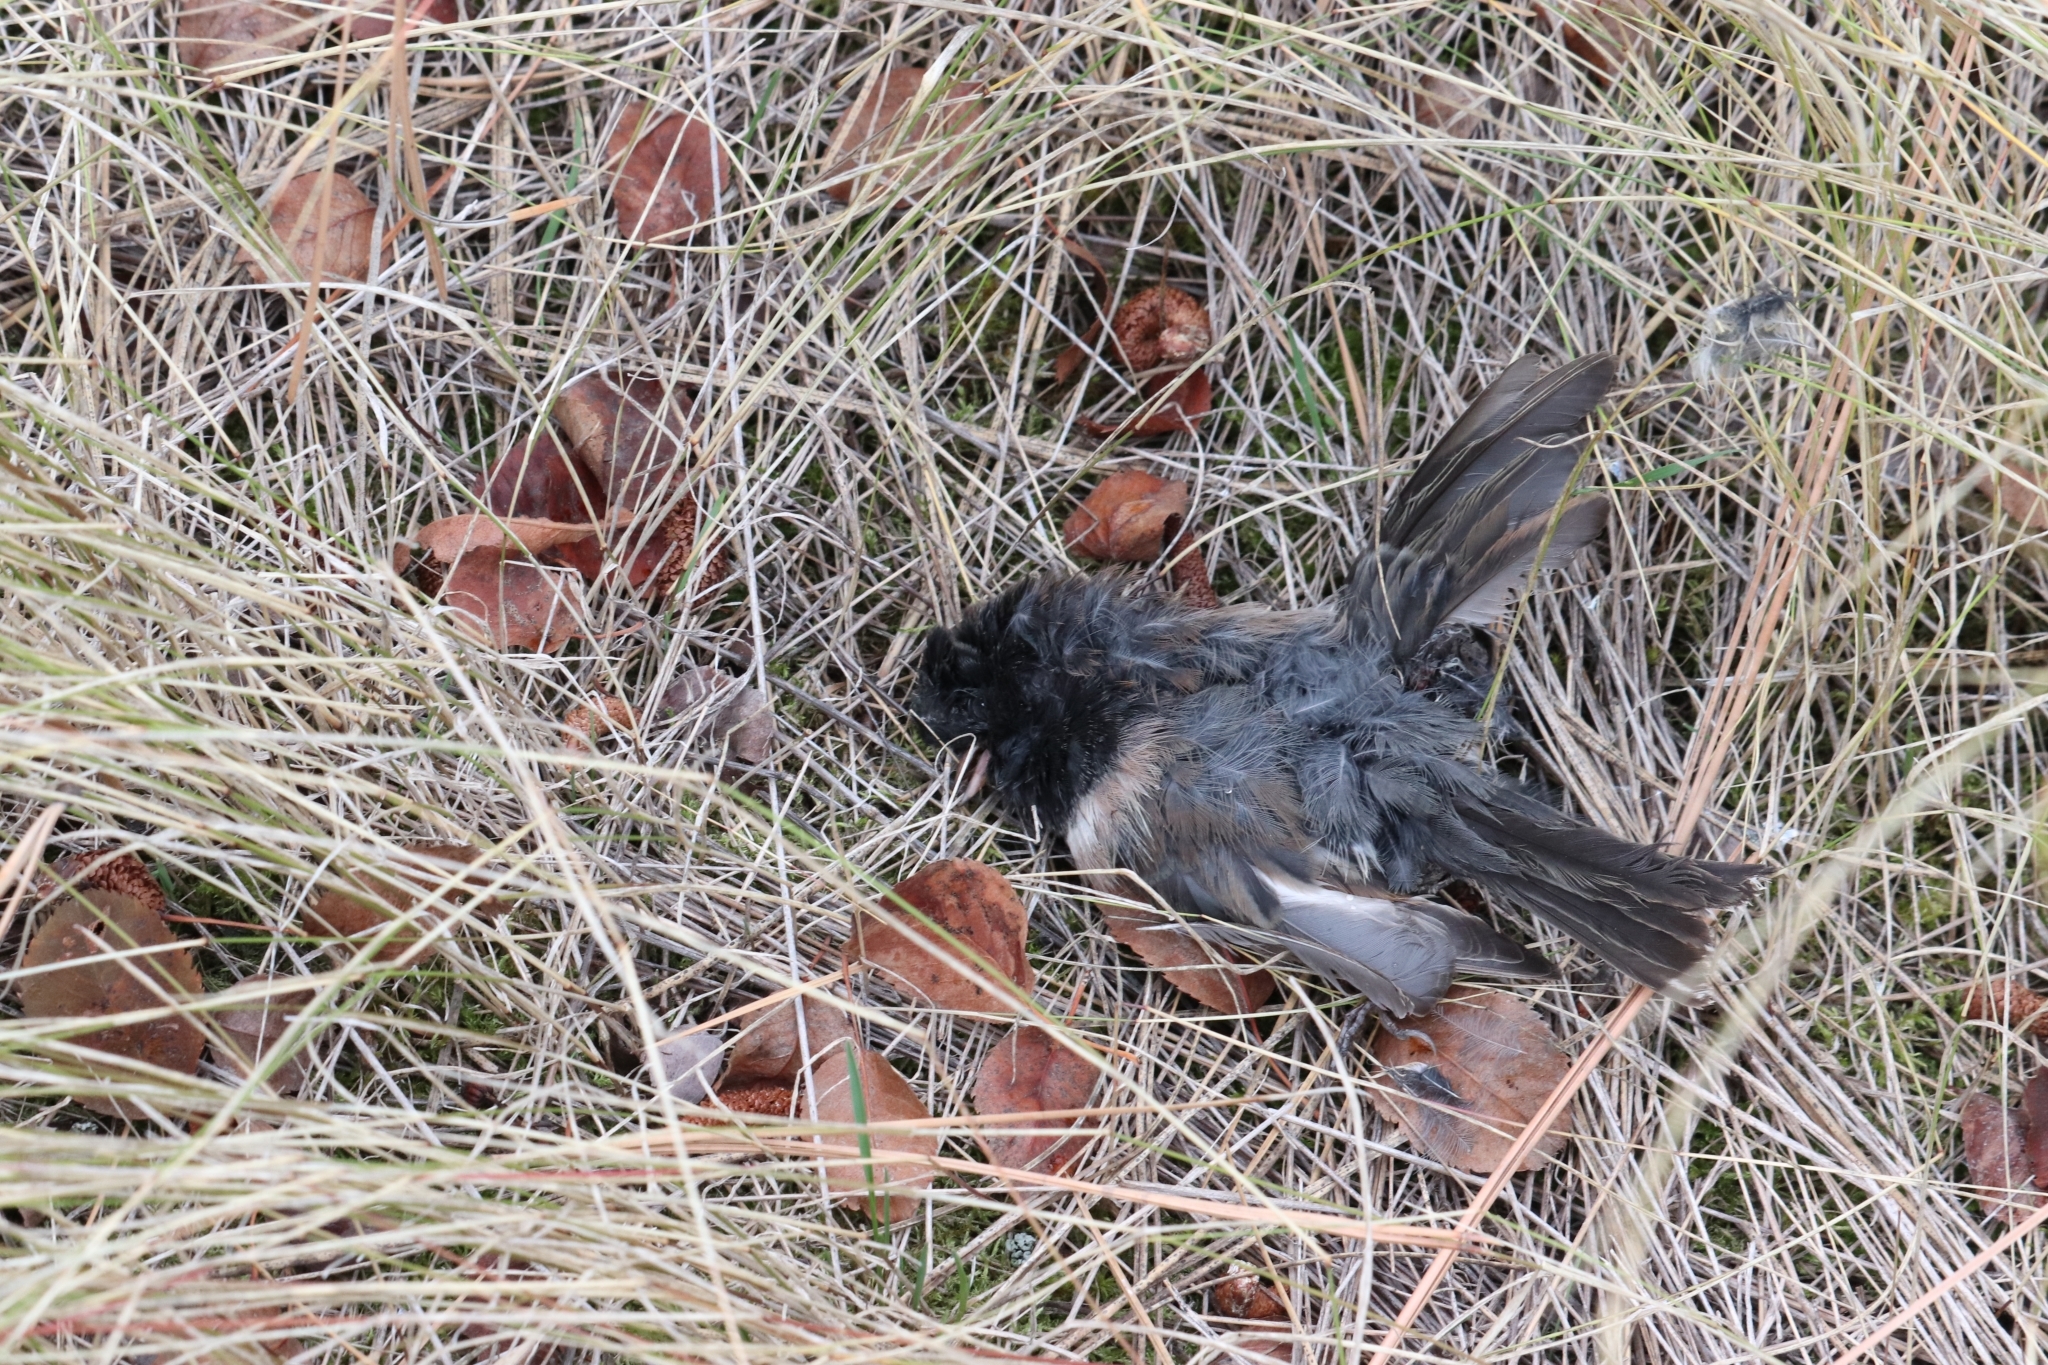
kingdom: Animalia
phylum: Chordata
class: Aves
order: Passeriformes
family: Passerellidae
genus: Junco
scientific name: Junco hyemalis
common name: Dark-eyed junco
